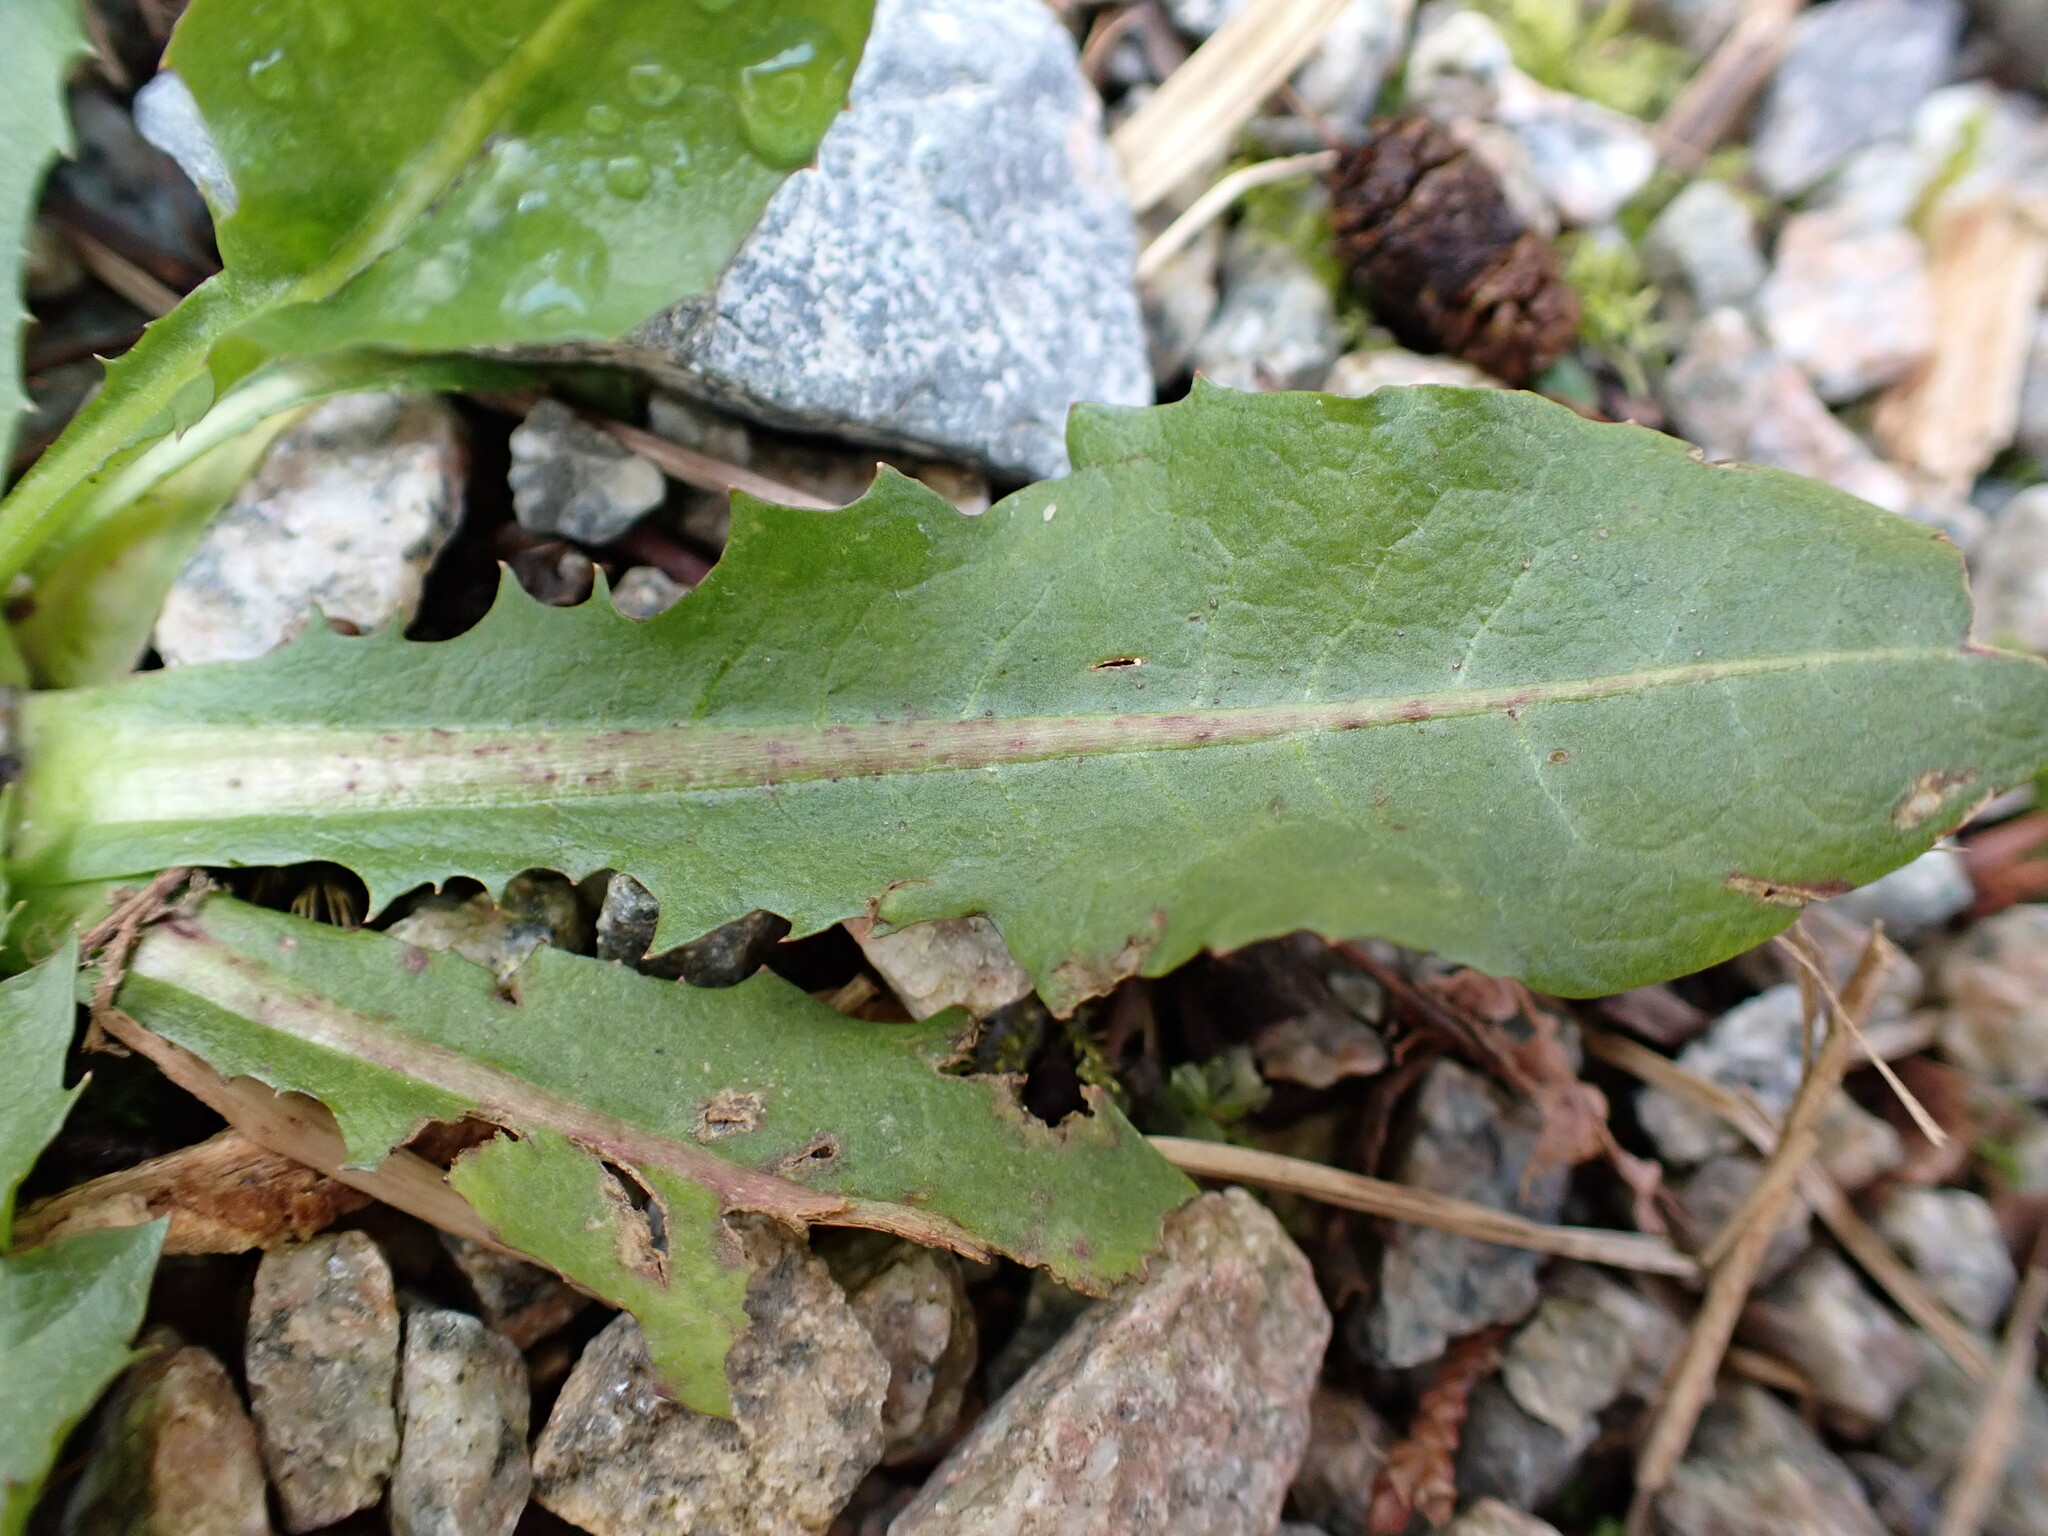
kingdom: Plantae
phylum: Tracheophyta
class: Magnoliopsida
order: Asterales
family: Asteraceae
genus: Taraxacum
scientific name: Taraxacum officinale
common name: Common dandelion
